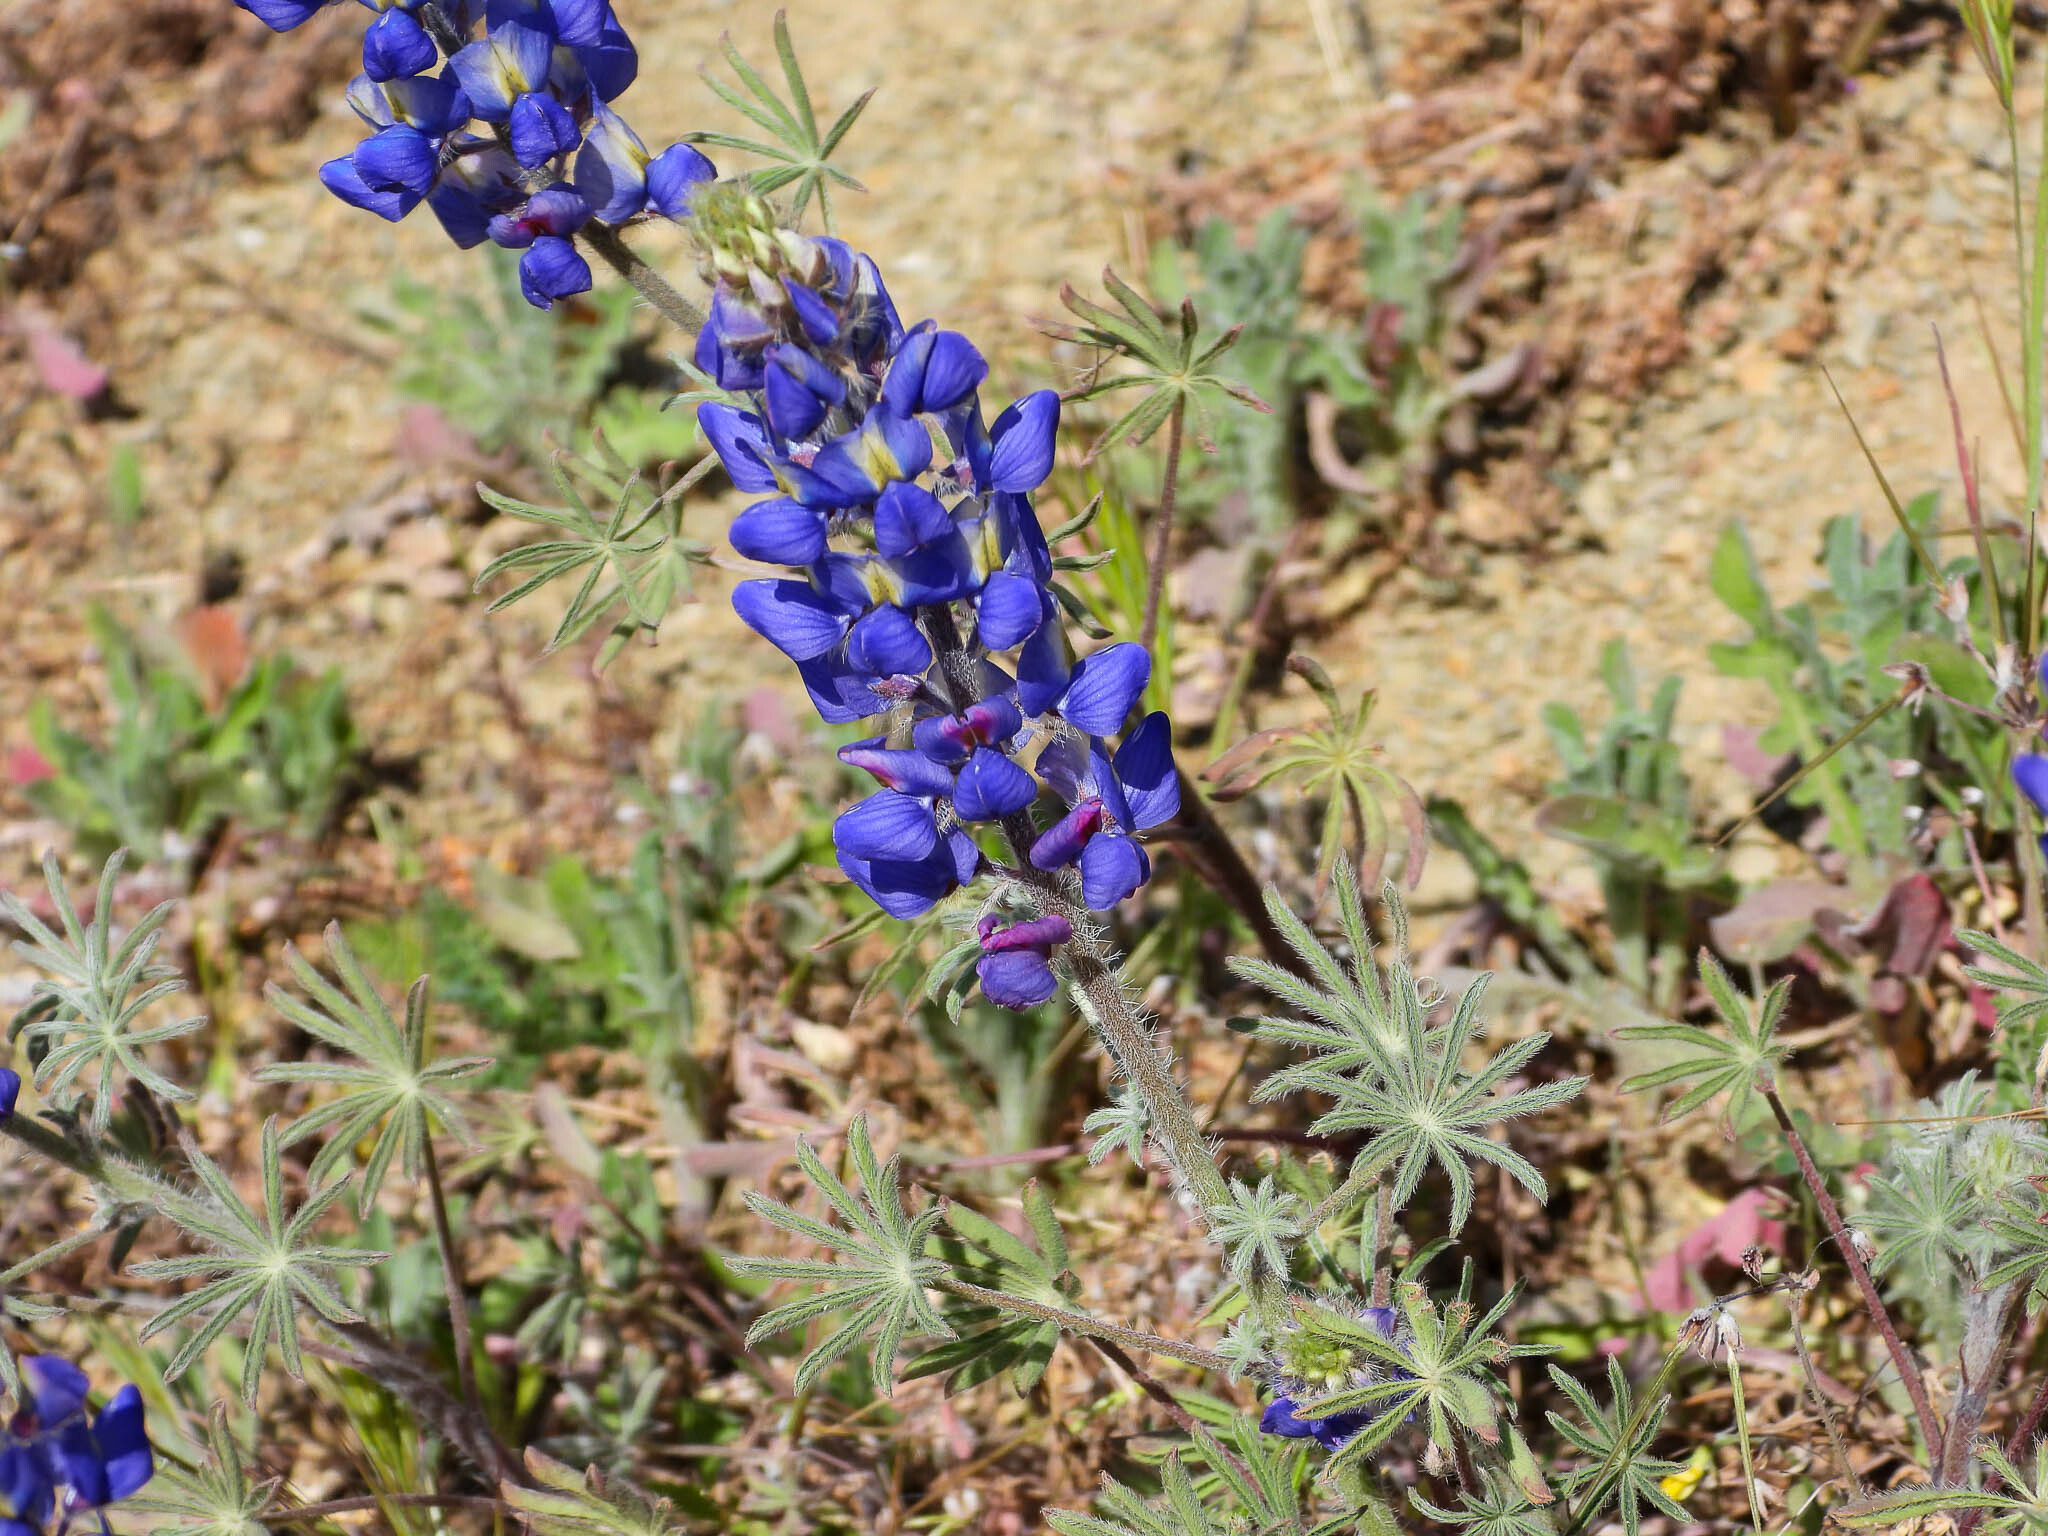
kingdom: Plantae
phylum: Tracheophyta
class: Magnoliopsida
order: Fabales
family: Fabaceae
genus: Lupinus
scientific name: Lupinus sparsiflorus
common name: Coulter's lupine
